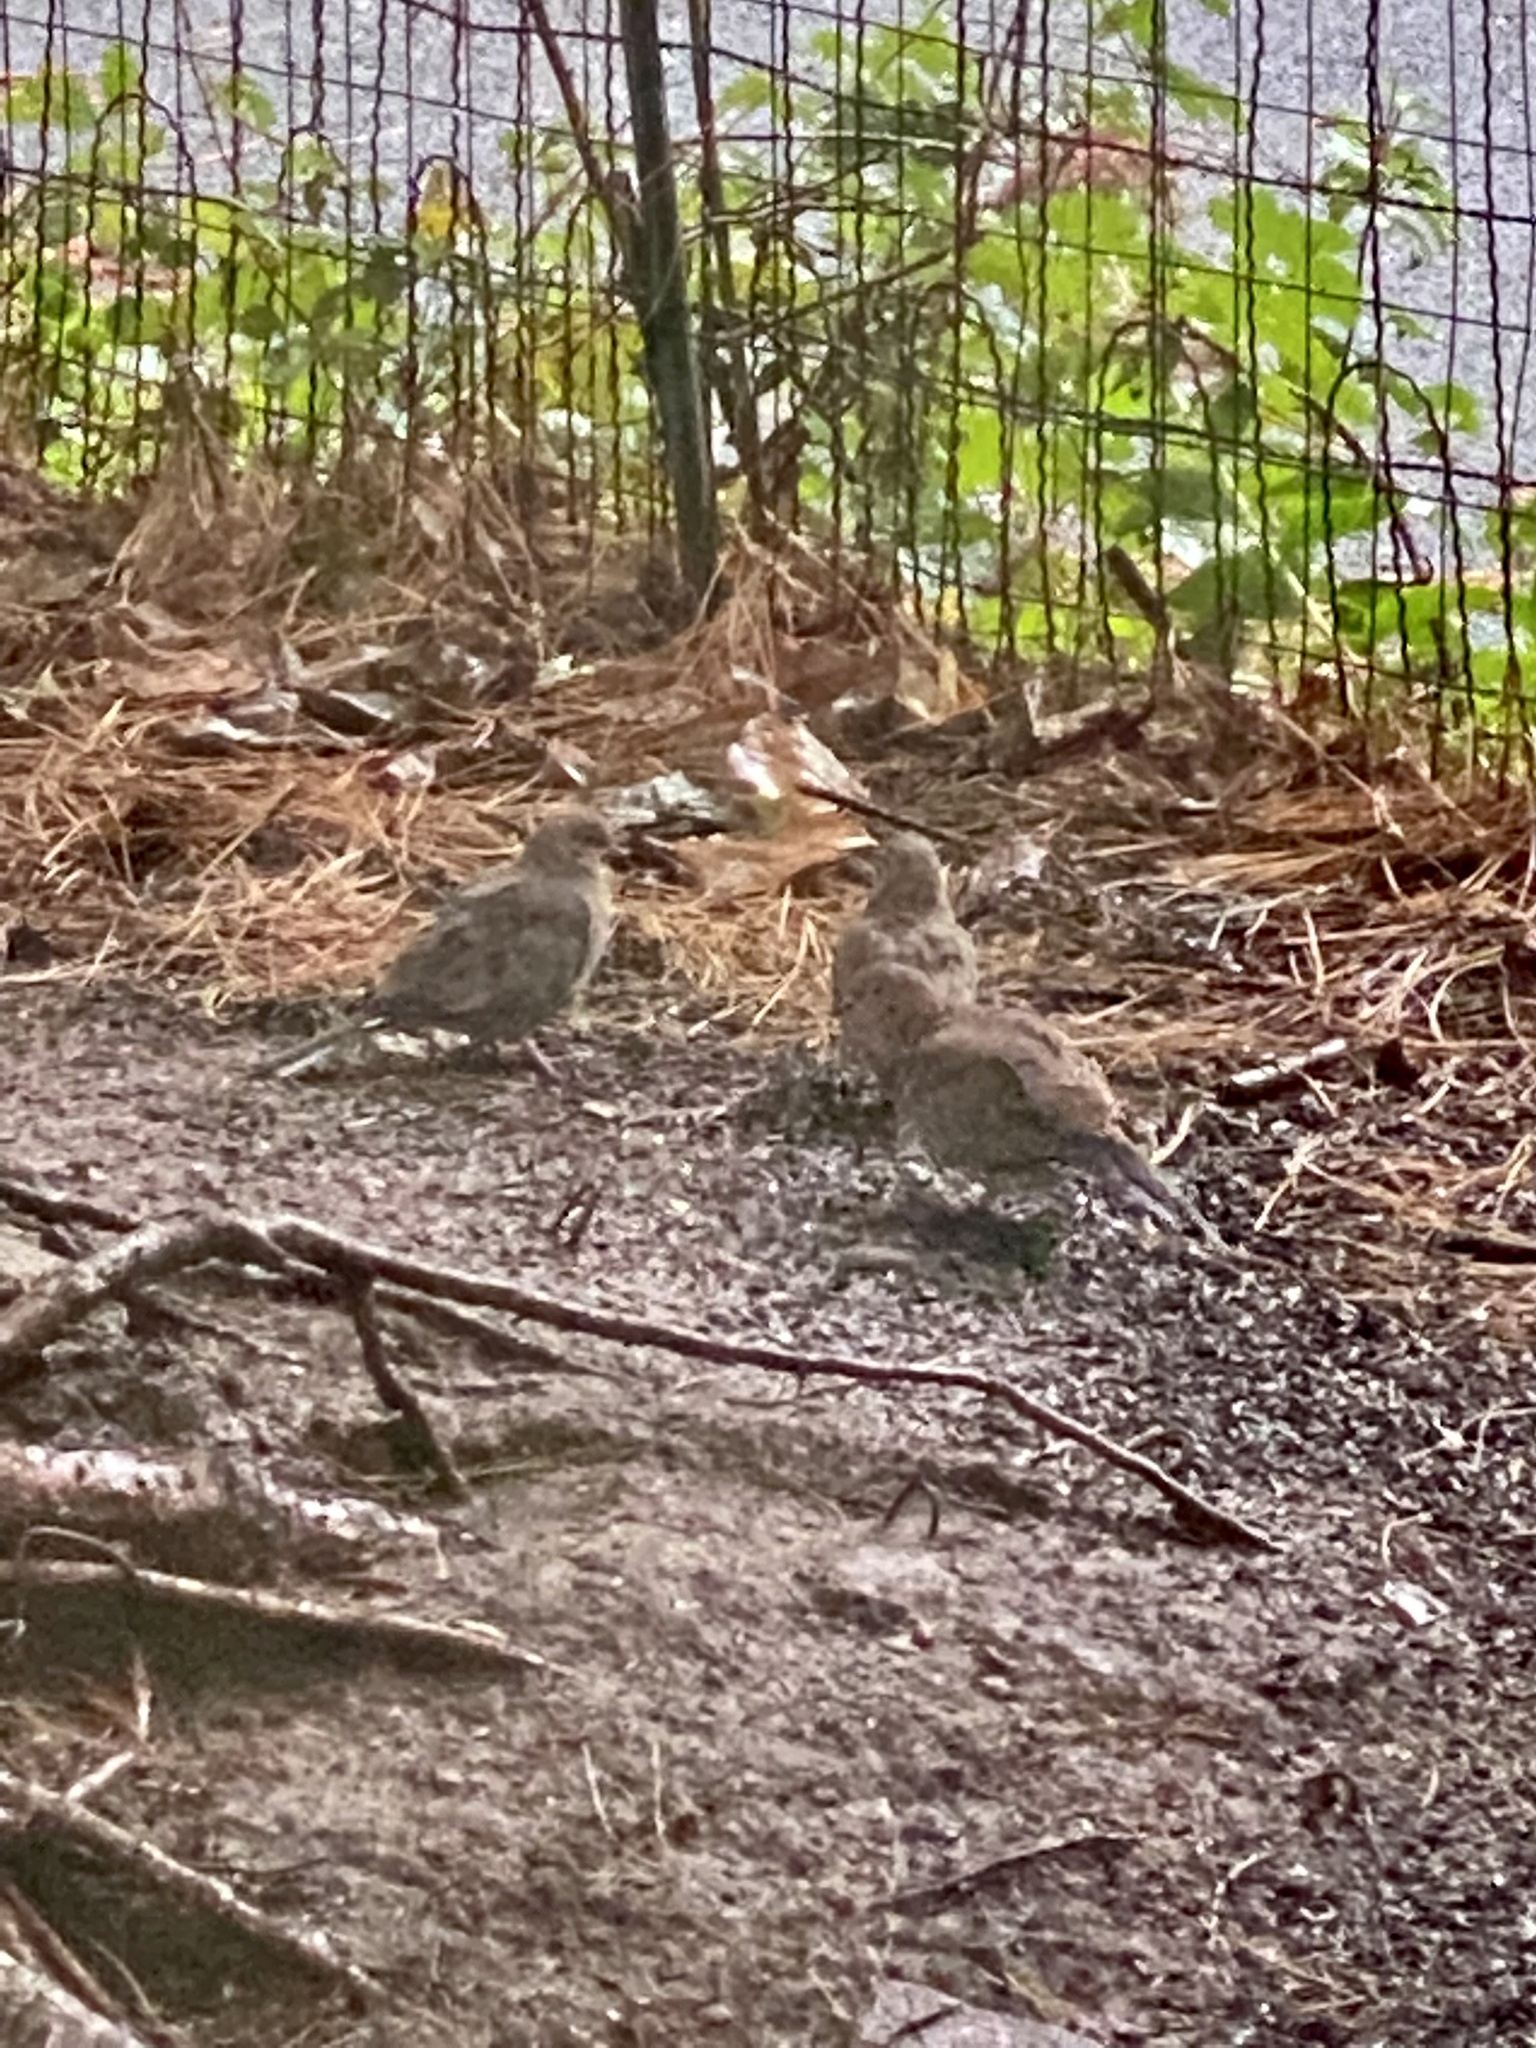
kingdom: Animalia
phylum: Chordata
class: Aves
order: Columbiformes
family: Columbidae
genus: Zenaida
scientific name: Zenaida macroura
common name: Mourning dove
